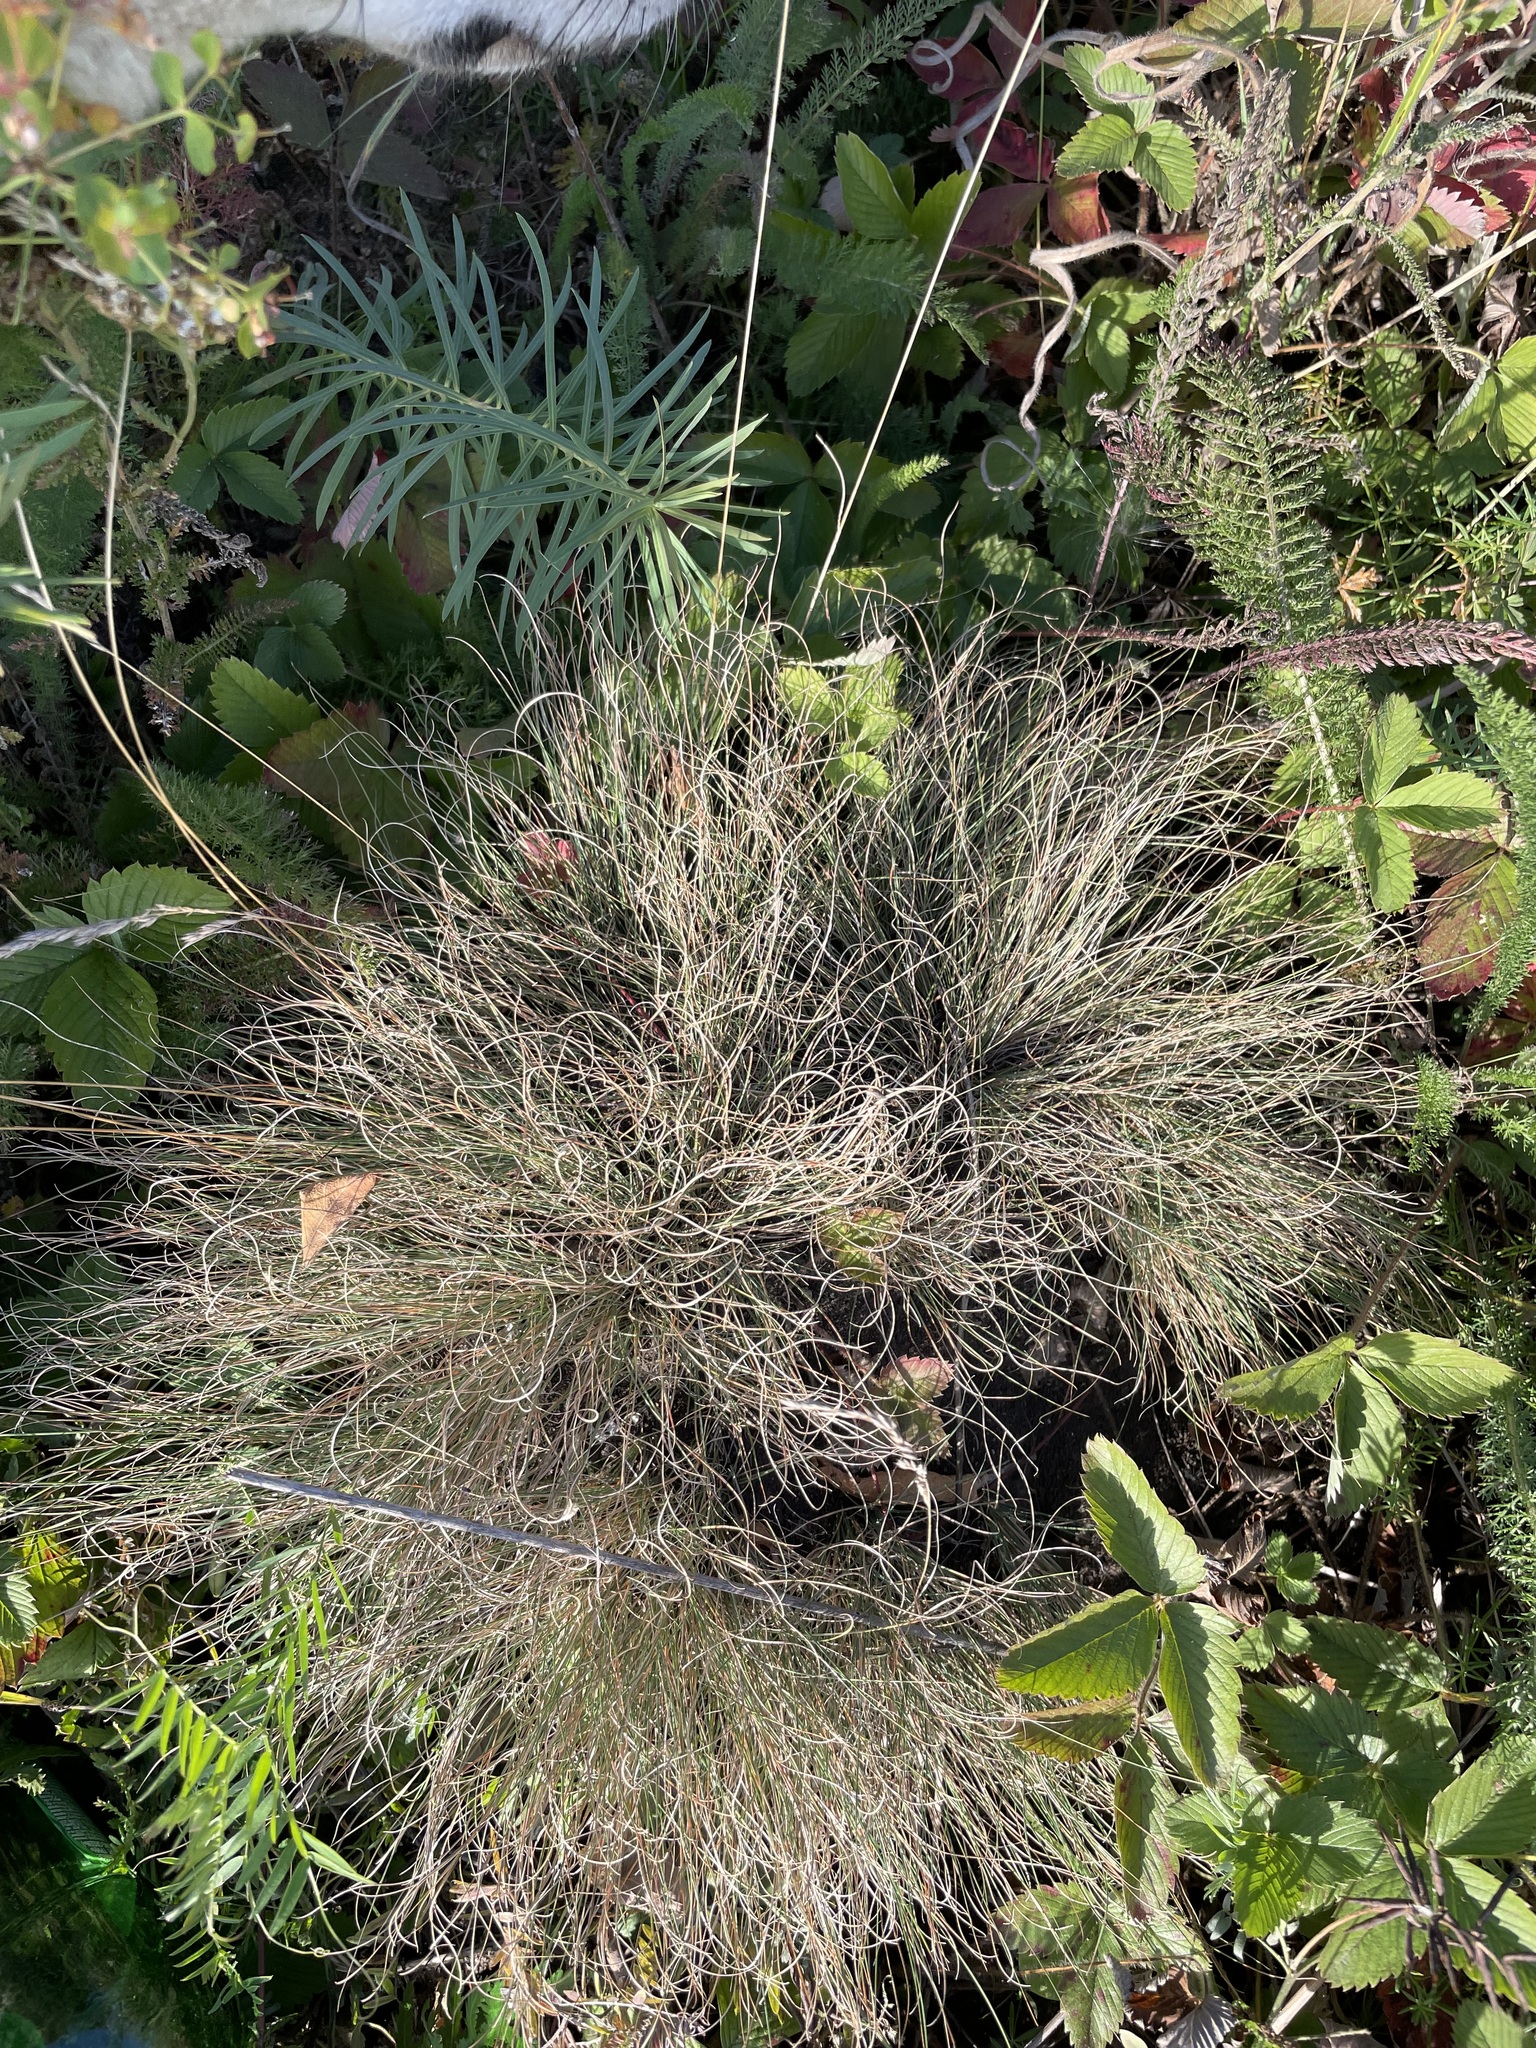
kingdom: Plantae
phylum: Tracheophyta
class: Liliopsida
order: Poales
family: Poaceae
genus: Festuca
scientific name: Festuca valesiaca
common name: Volga fescue
